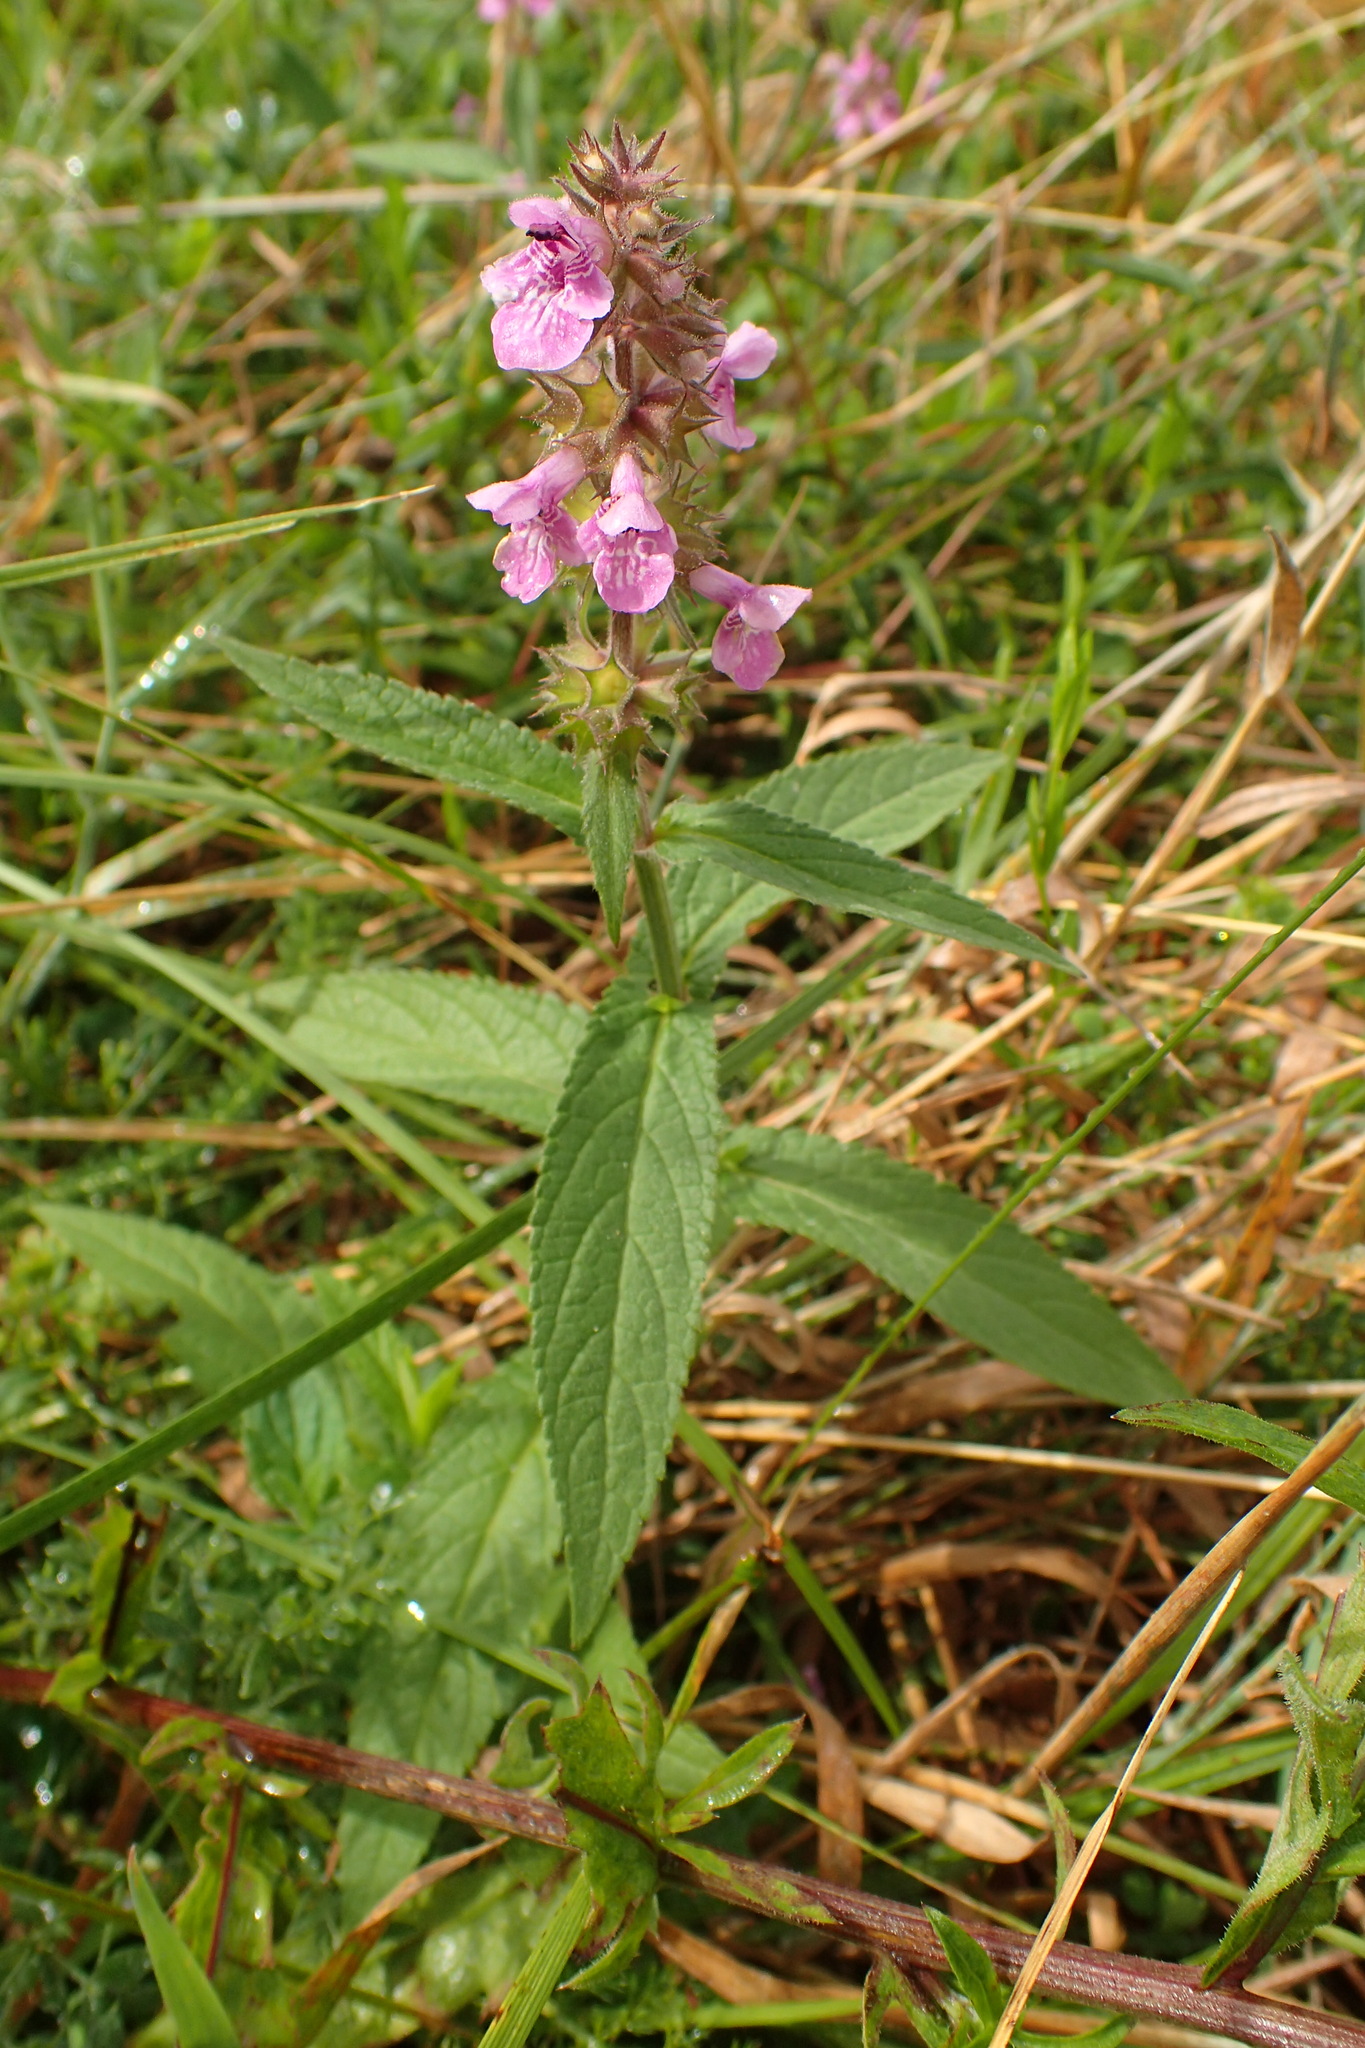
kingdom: Plantae
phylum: Tracheophyta
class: Magnoliopsida
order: Lamiales
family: Lamiaceae
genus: Stachys
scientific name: Stachys palustris
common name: Marsh woundwort
